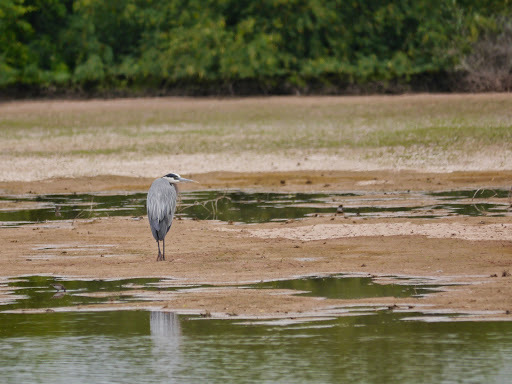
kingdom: Animalia
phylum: Chordata
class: Aves
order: Pelecaniformes
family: Ardeidae
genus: Ardea
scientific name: Ardea herodias
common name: Great blue heron
